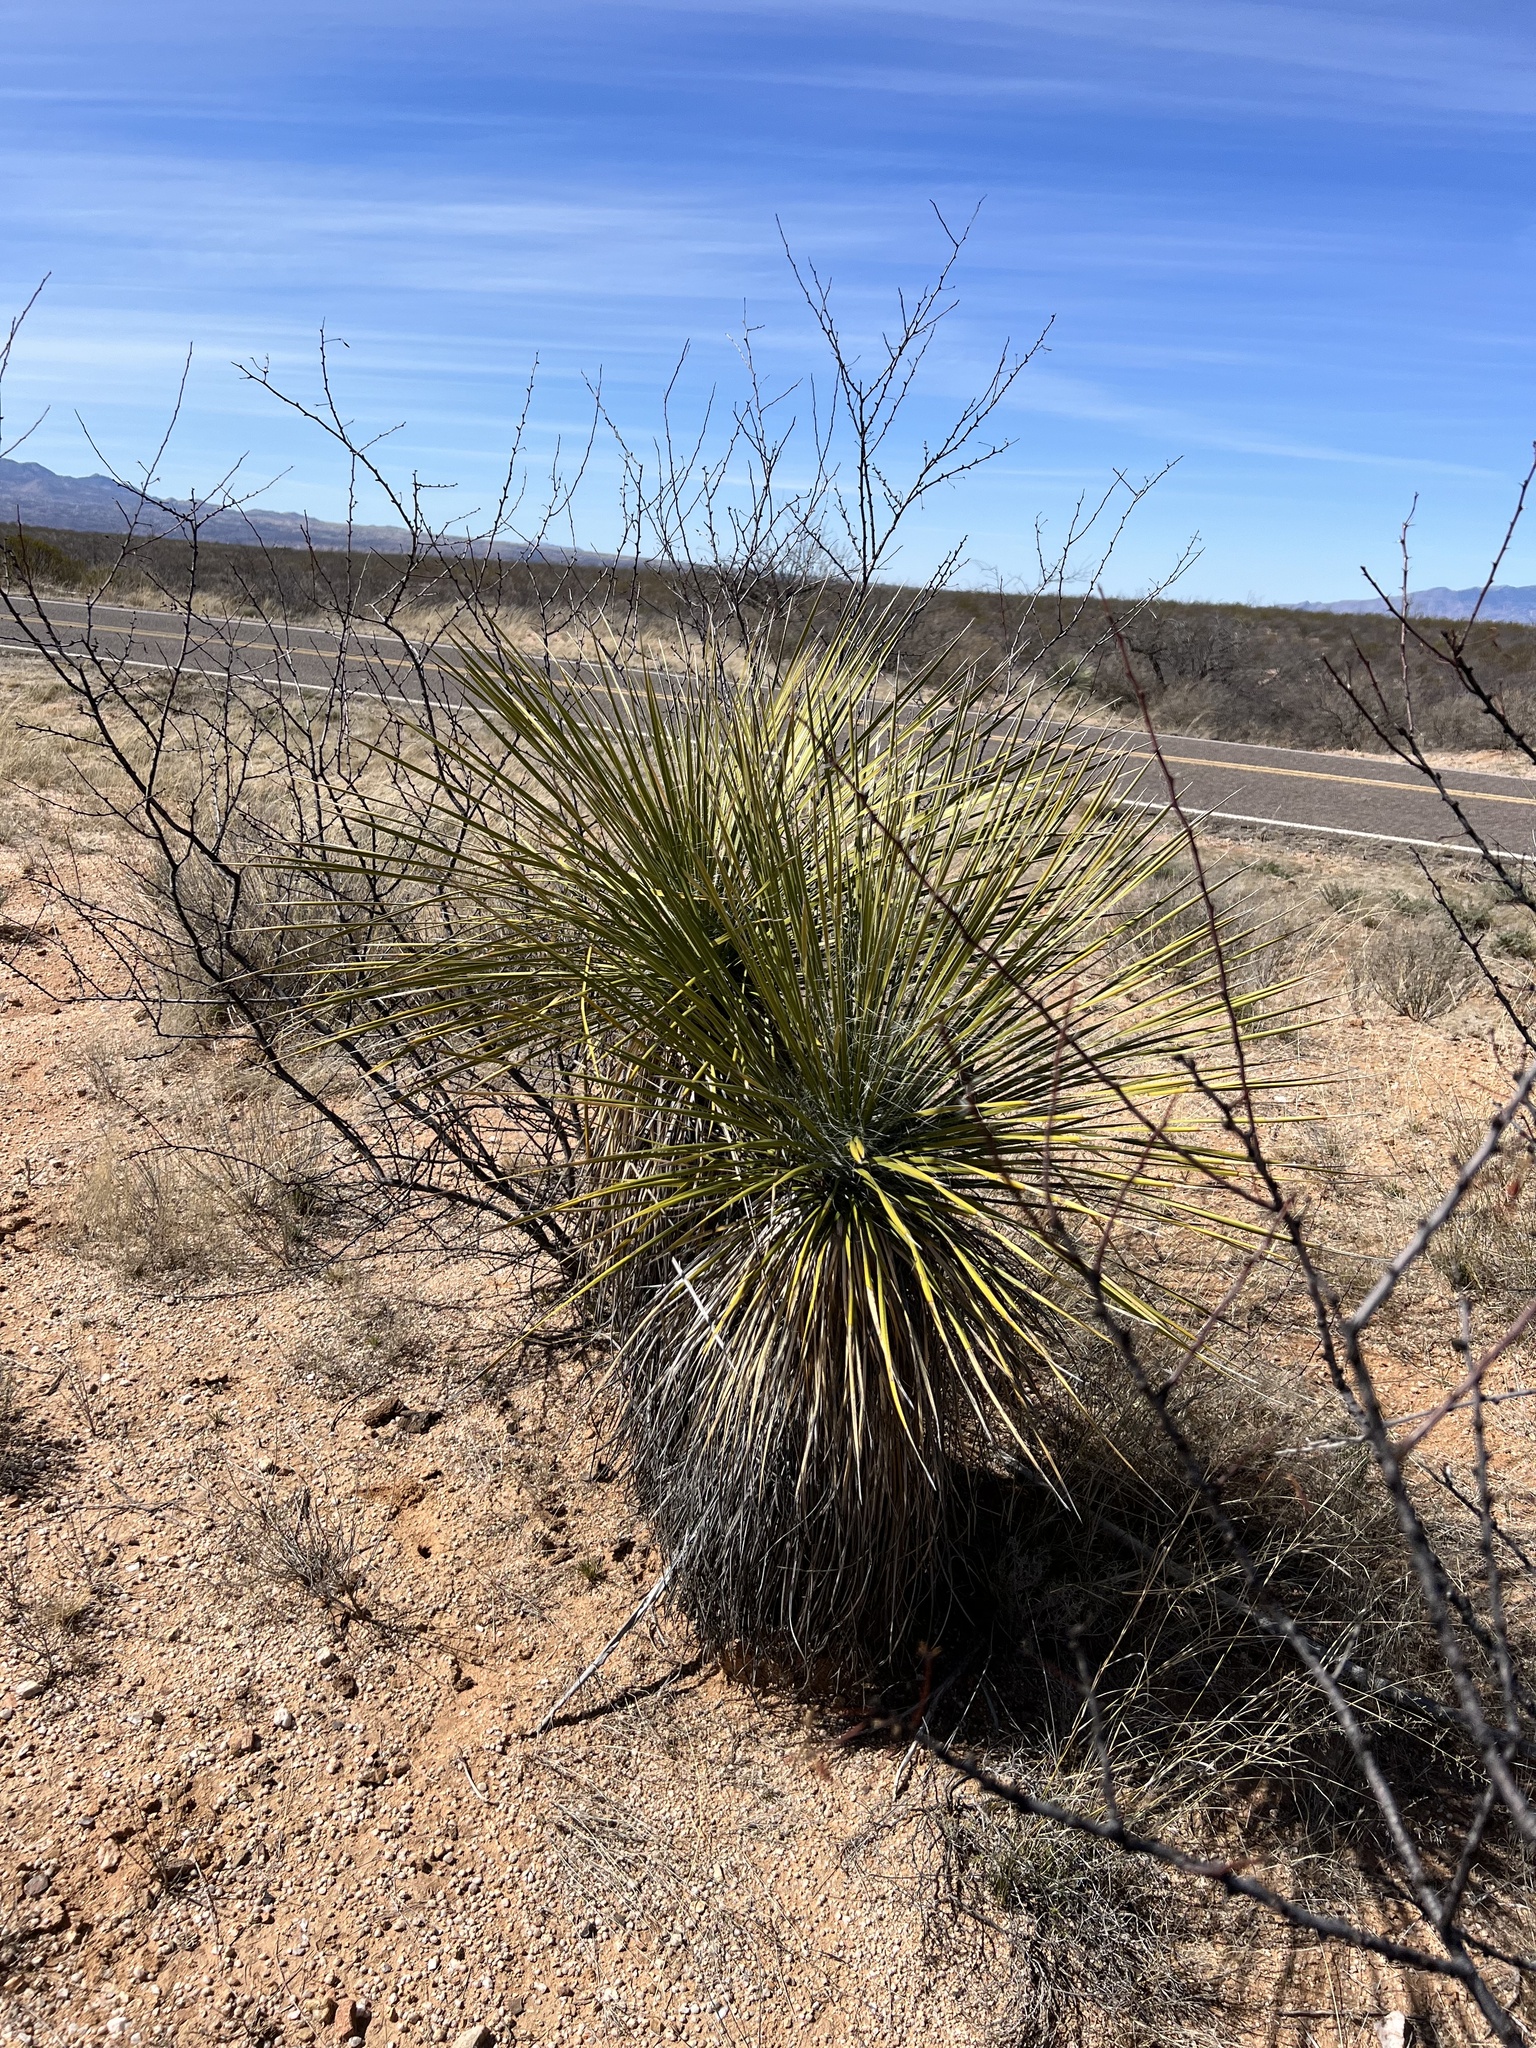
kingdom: Plantae
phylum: Tracheophyta
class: Liliopsida
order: Asparagales
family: Asparagaceae
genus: Yucca
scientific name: Yucca elata
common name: Palmella
